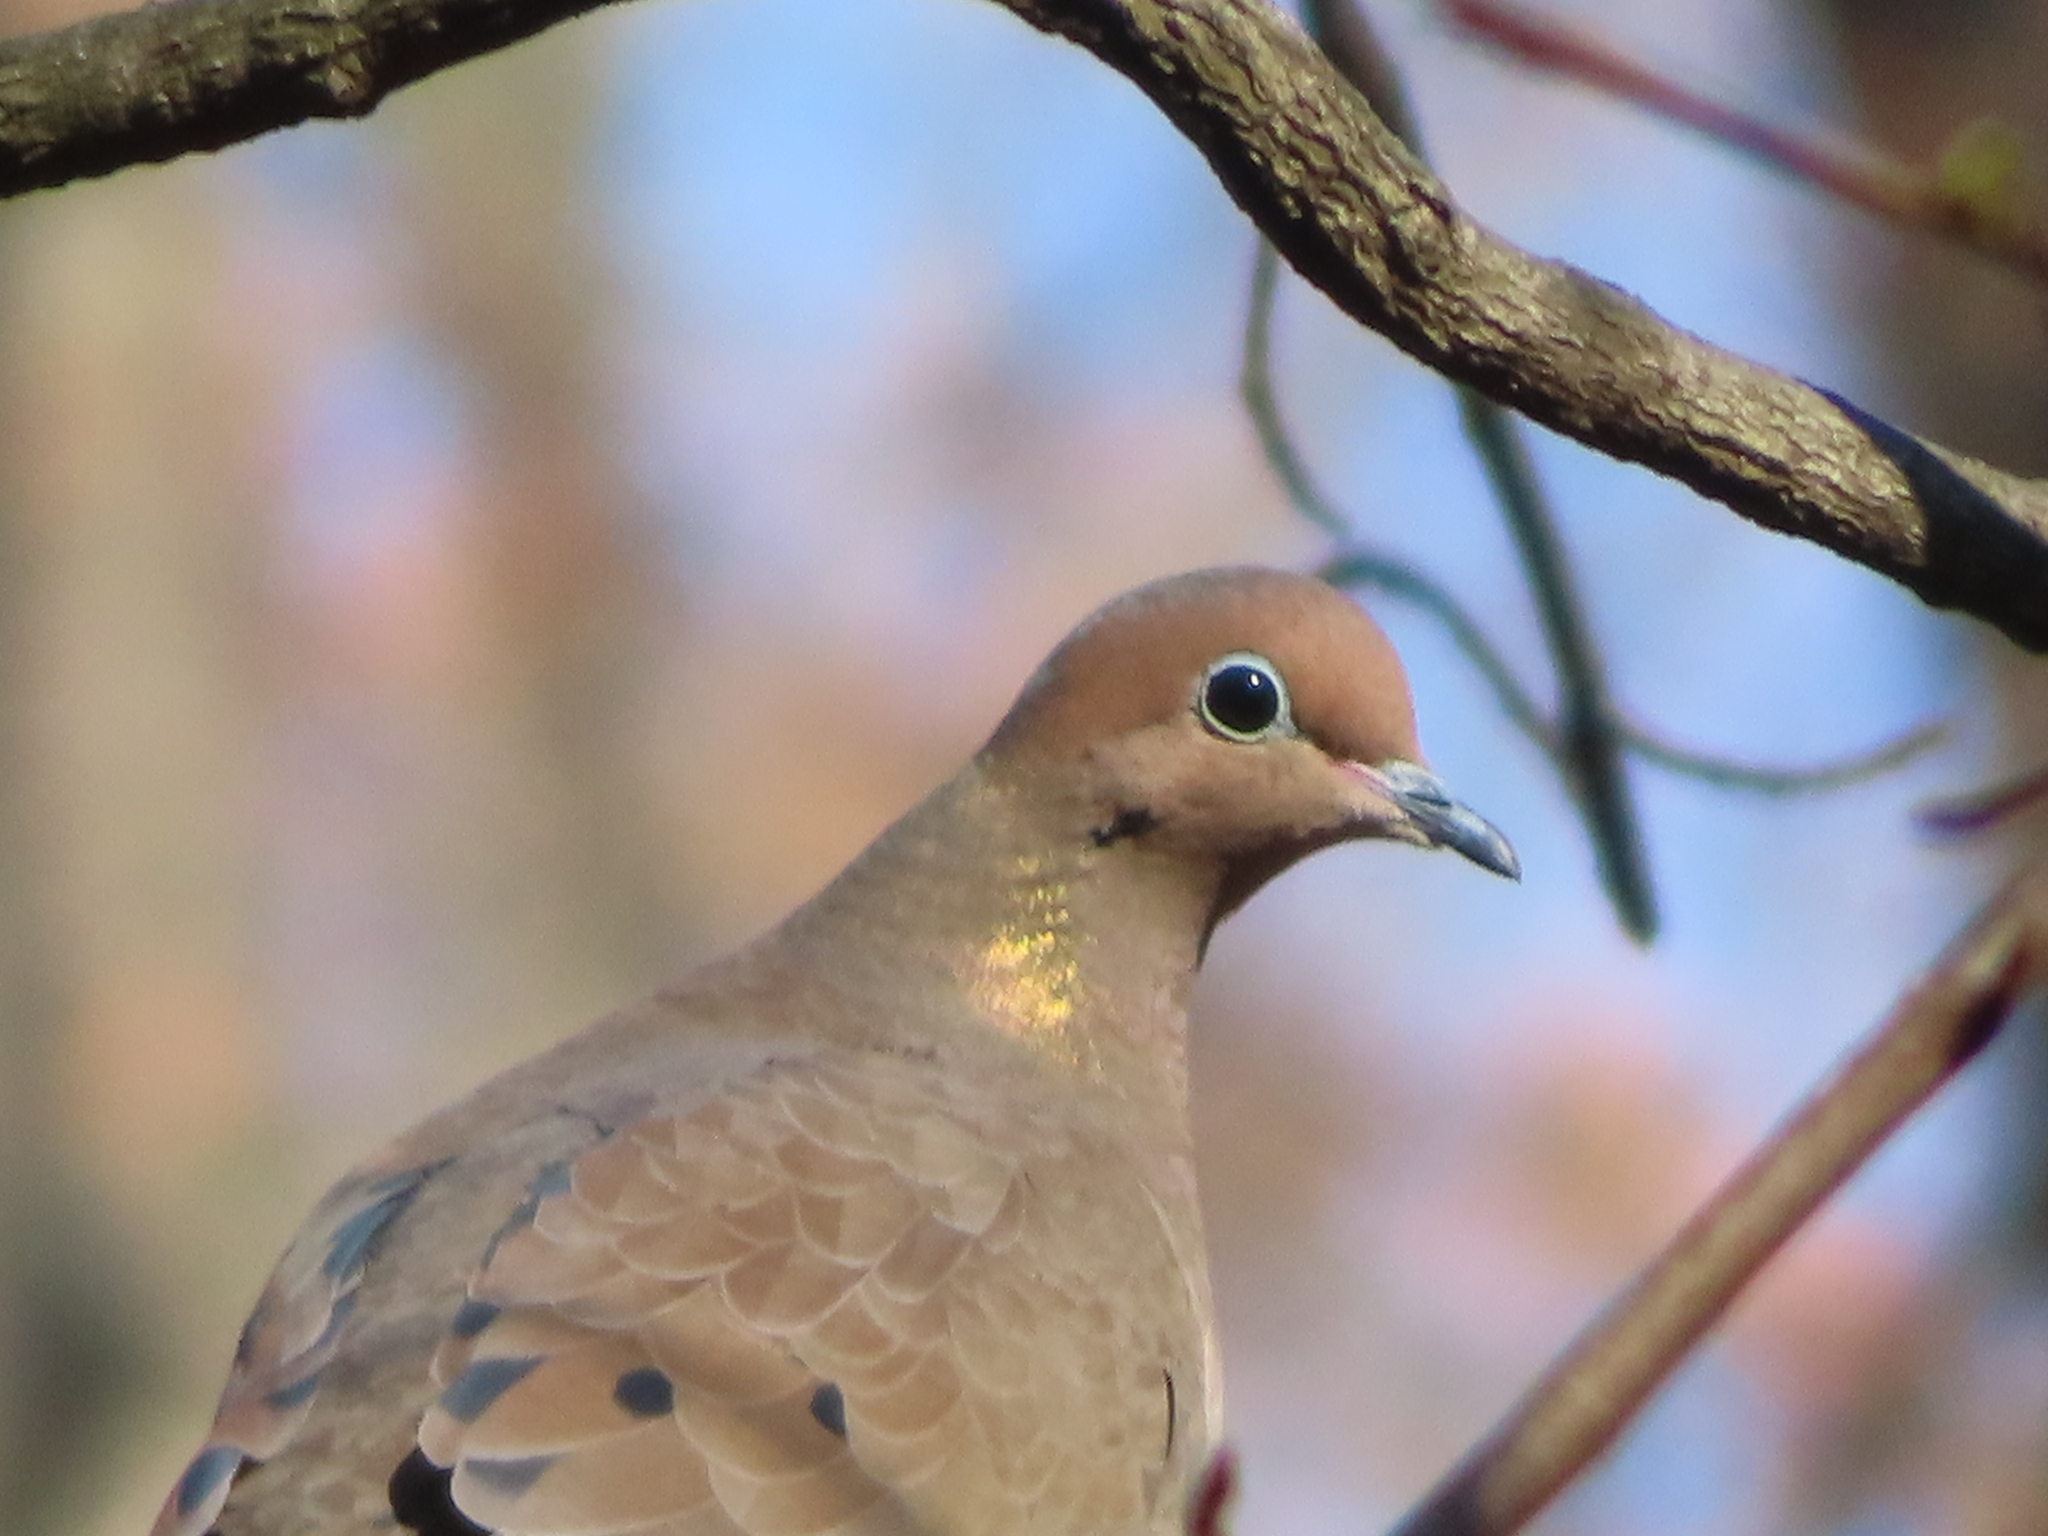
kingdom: Animalia
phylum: Chordata
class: Aves
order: Columbiformes
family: Columbidae
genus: Zenaida
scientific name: Zenaida macroura
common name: Mourning dove
